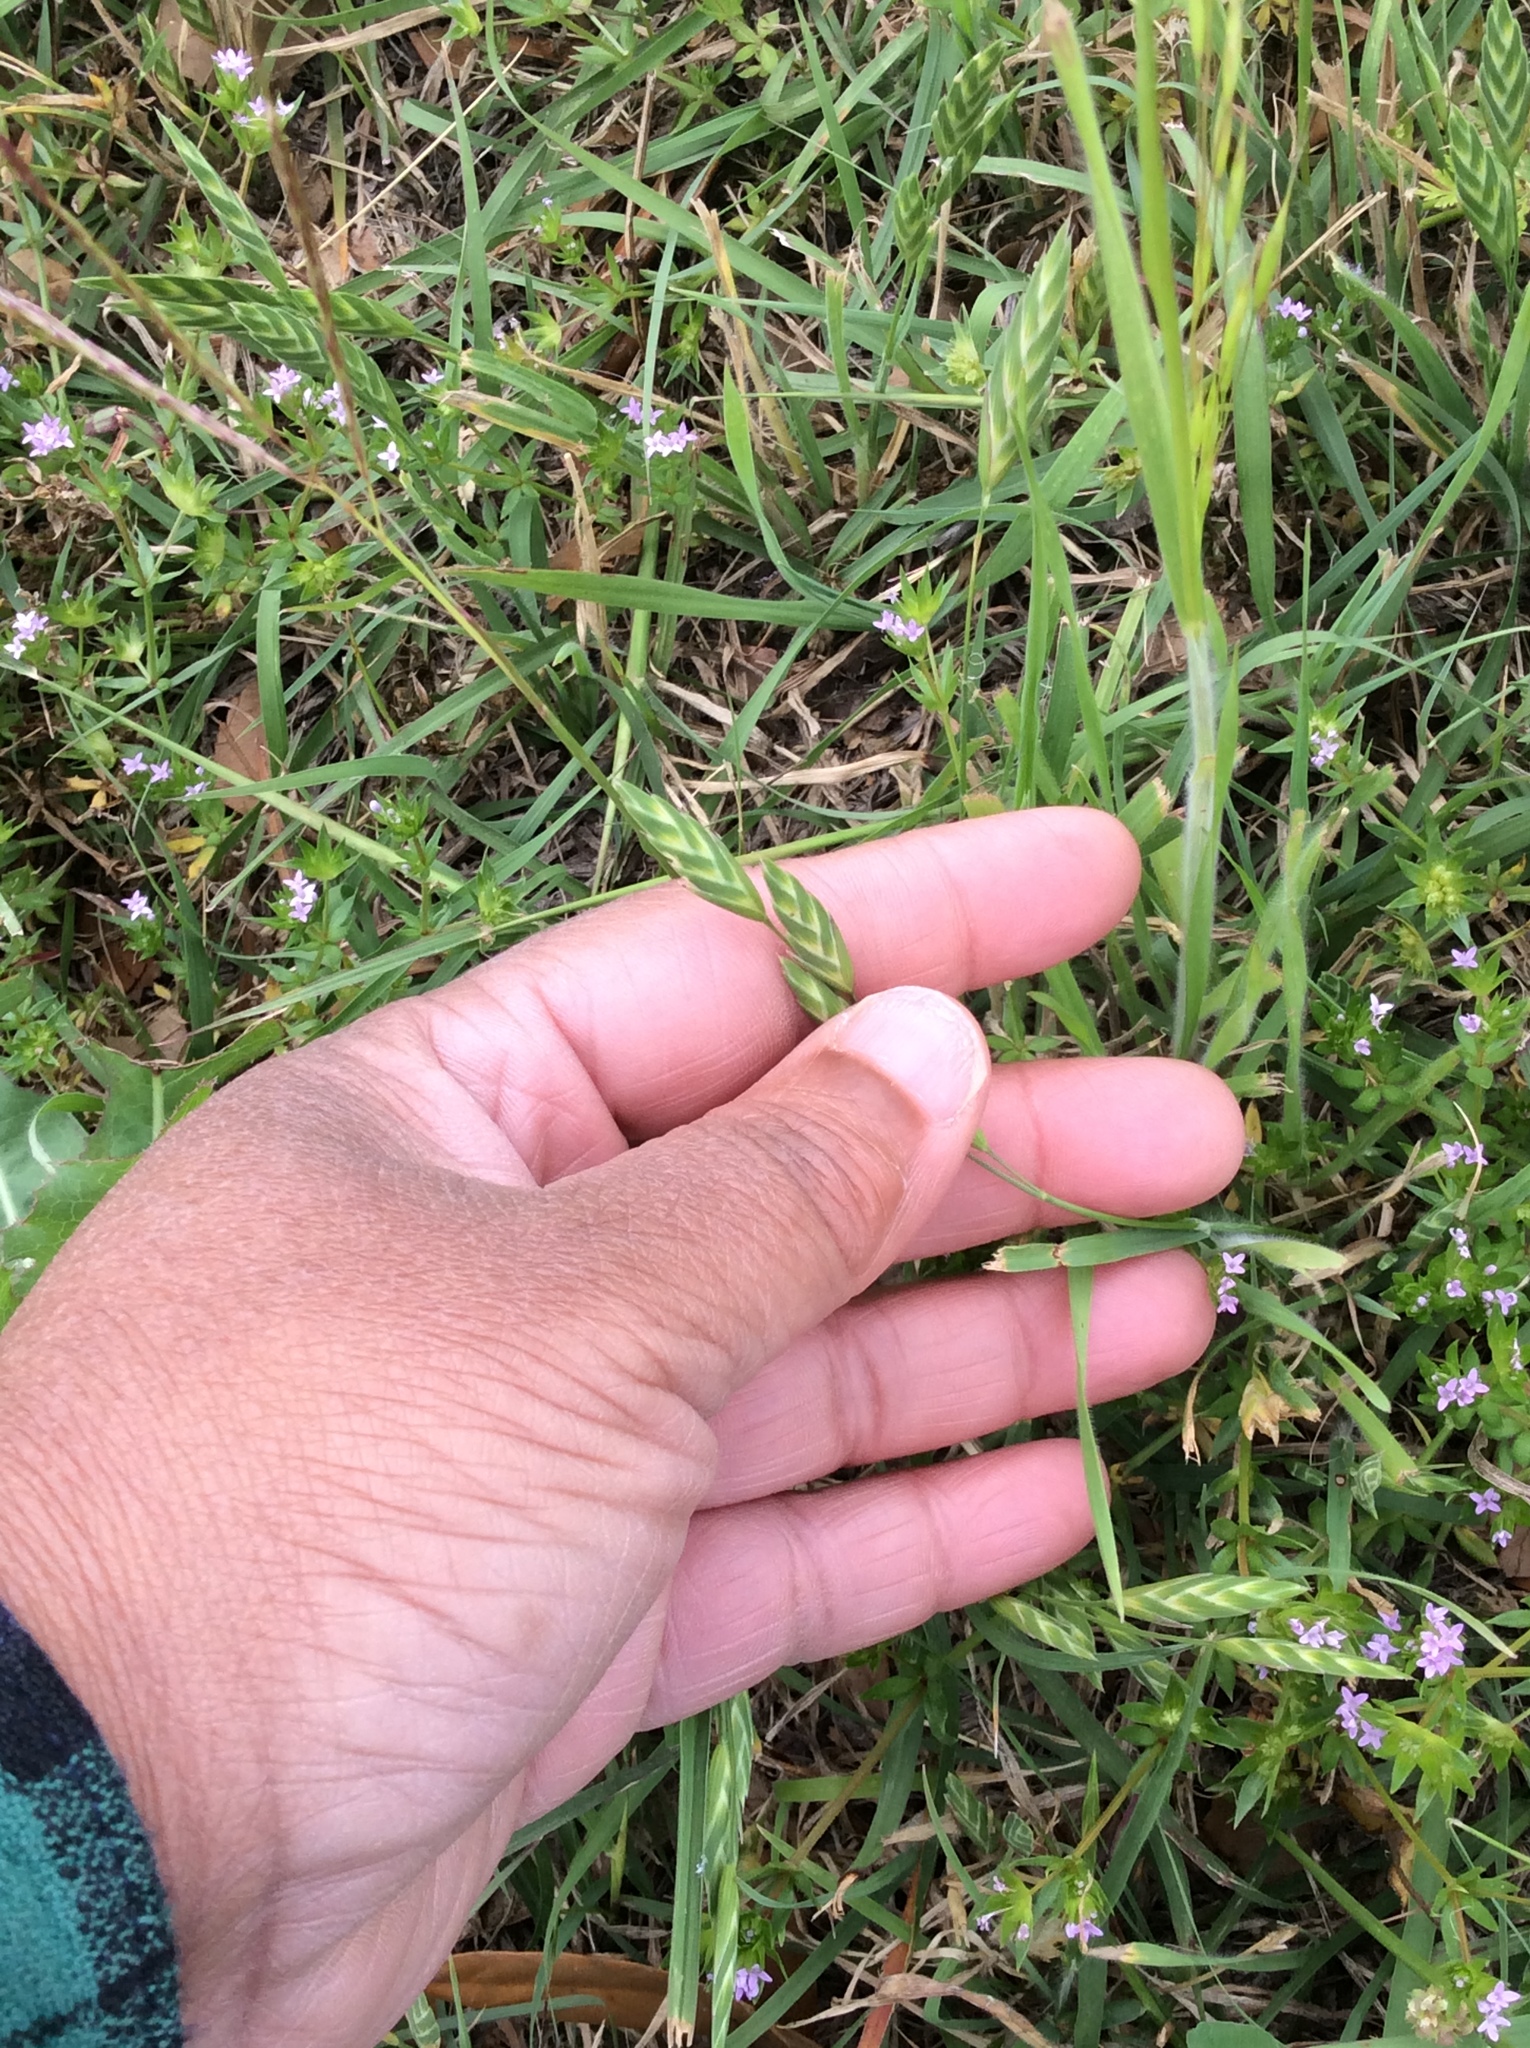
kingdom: Plantae
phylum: Tracheophyta
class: Liliopsida
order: Poales
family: Poaceae
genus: Bromus
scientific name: Bromus catharticus
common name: Rescuegrass
